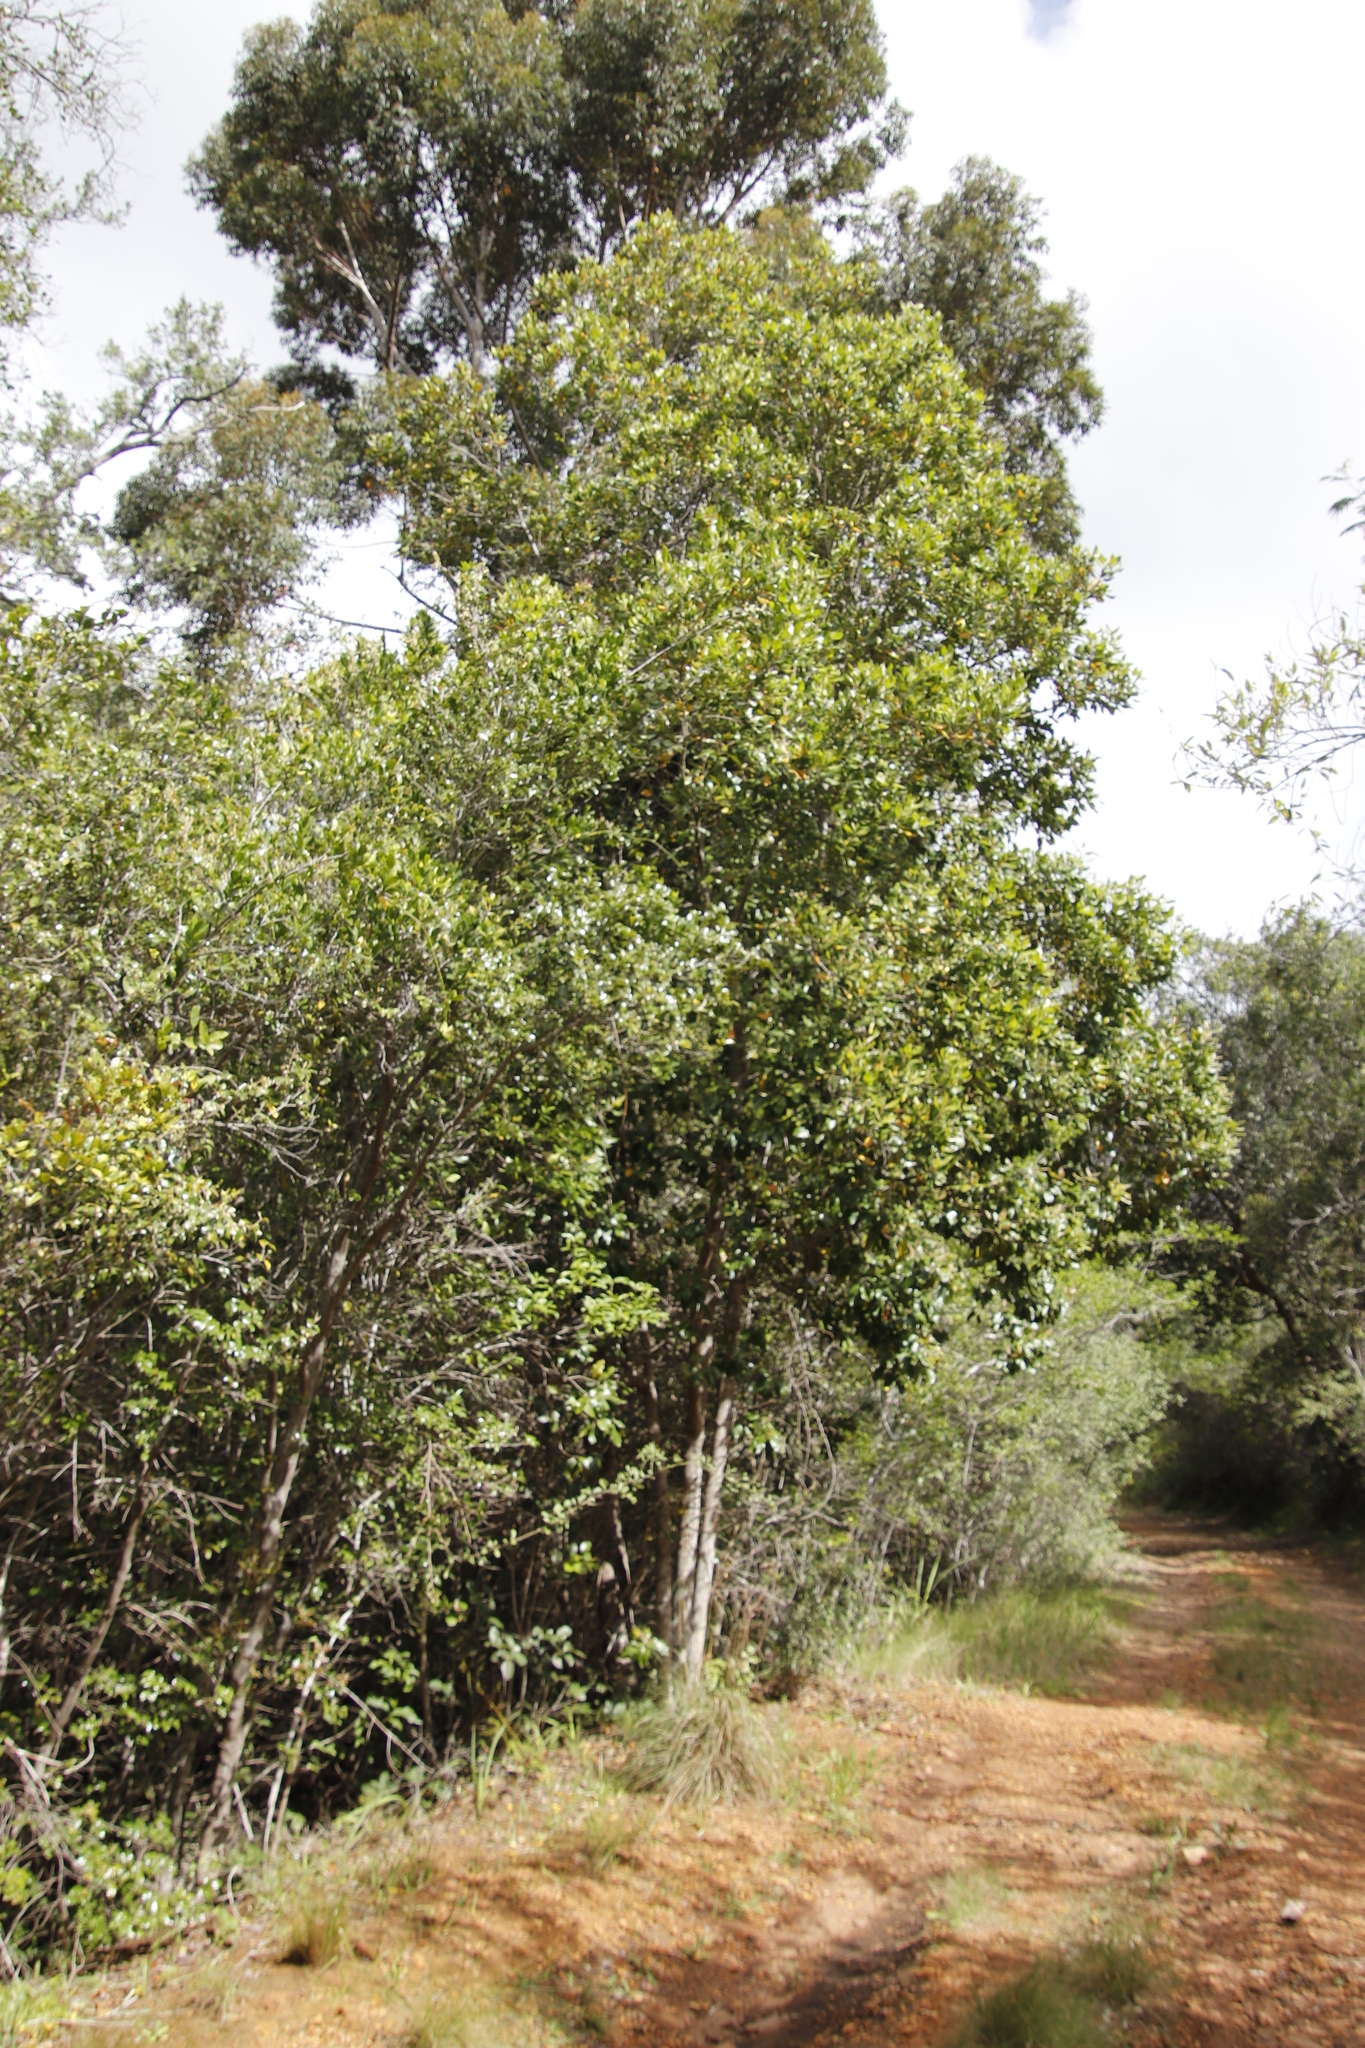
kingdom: Plantae
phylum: Tracheophyta
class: Magnoliopsida
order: Cornales
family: Curtisiaceae
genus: Curtisia
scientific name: Curtisia dentata
